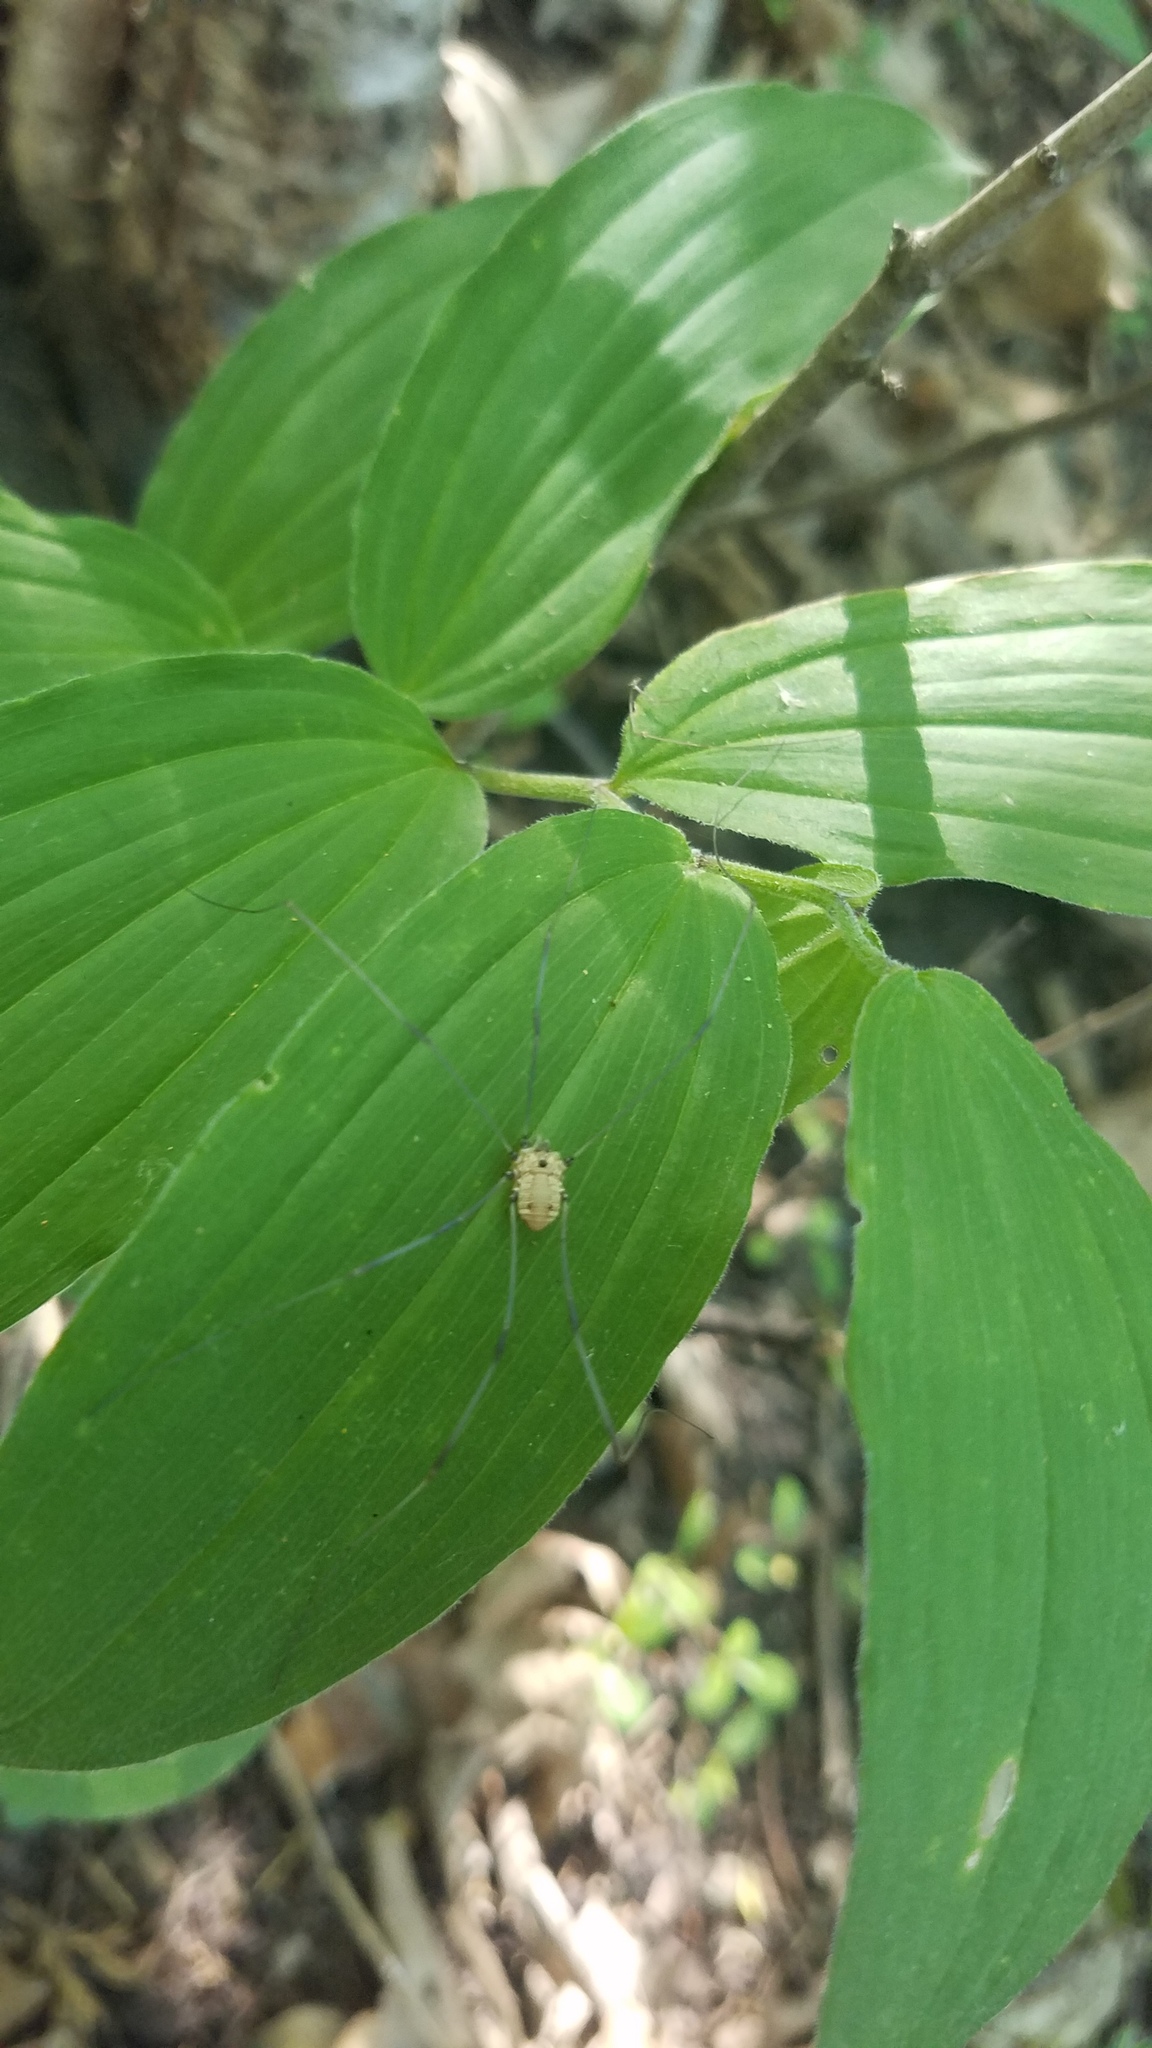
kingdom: Plantae
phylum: Tracheophyta
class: Liliopsida
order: Asparagales
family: Asparagaceae
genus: Maianthemum
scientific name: Maianthemum racemosum
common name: False spikenard
